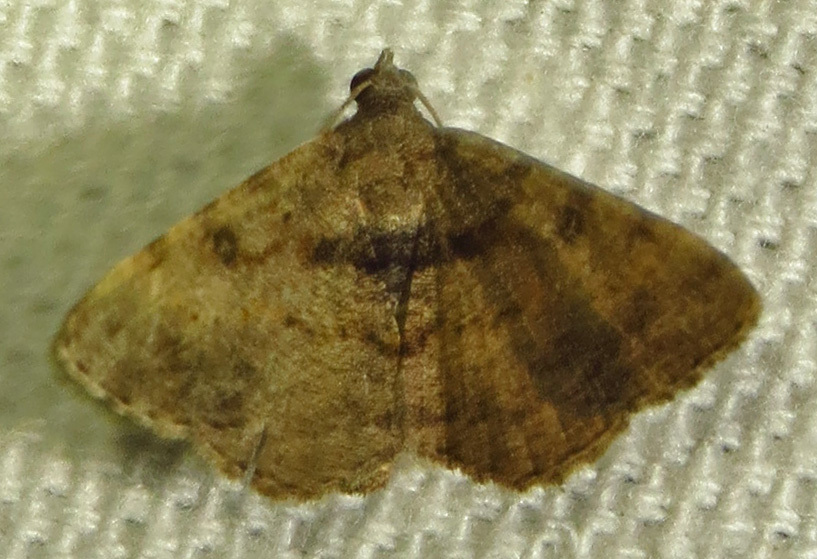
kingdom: Animalia
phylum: Arthropoda
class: Insecta
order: Lepidoptera
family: Geometridae
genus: Digrammia
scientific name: Digrammia gnophosaria
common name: Hollow-spotted angle
